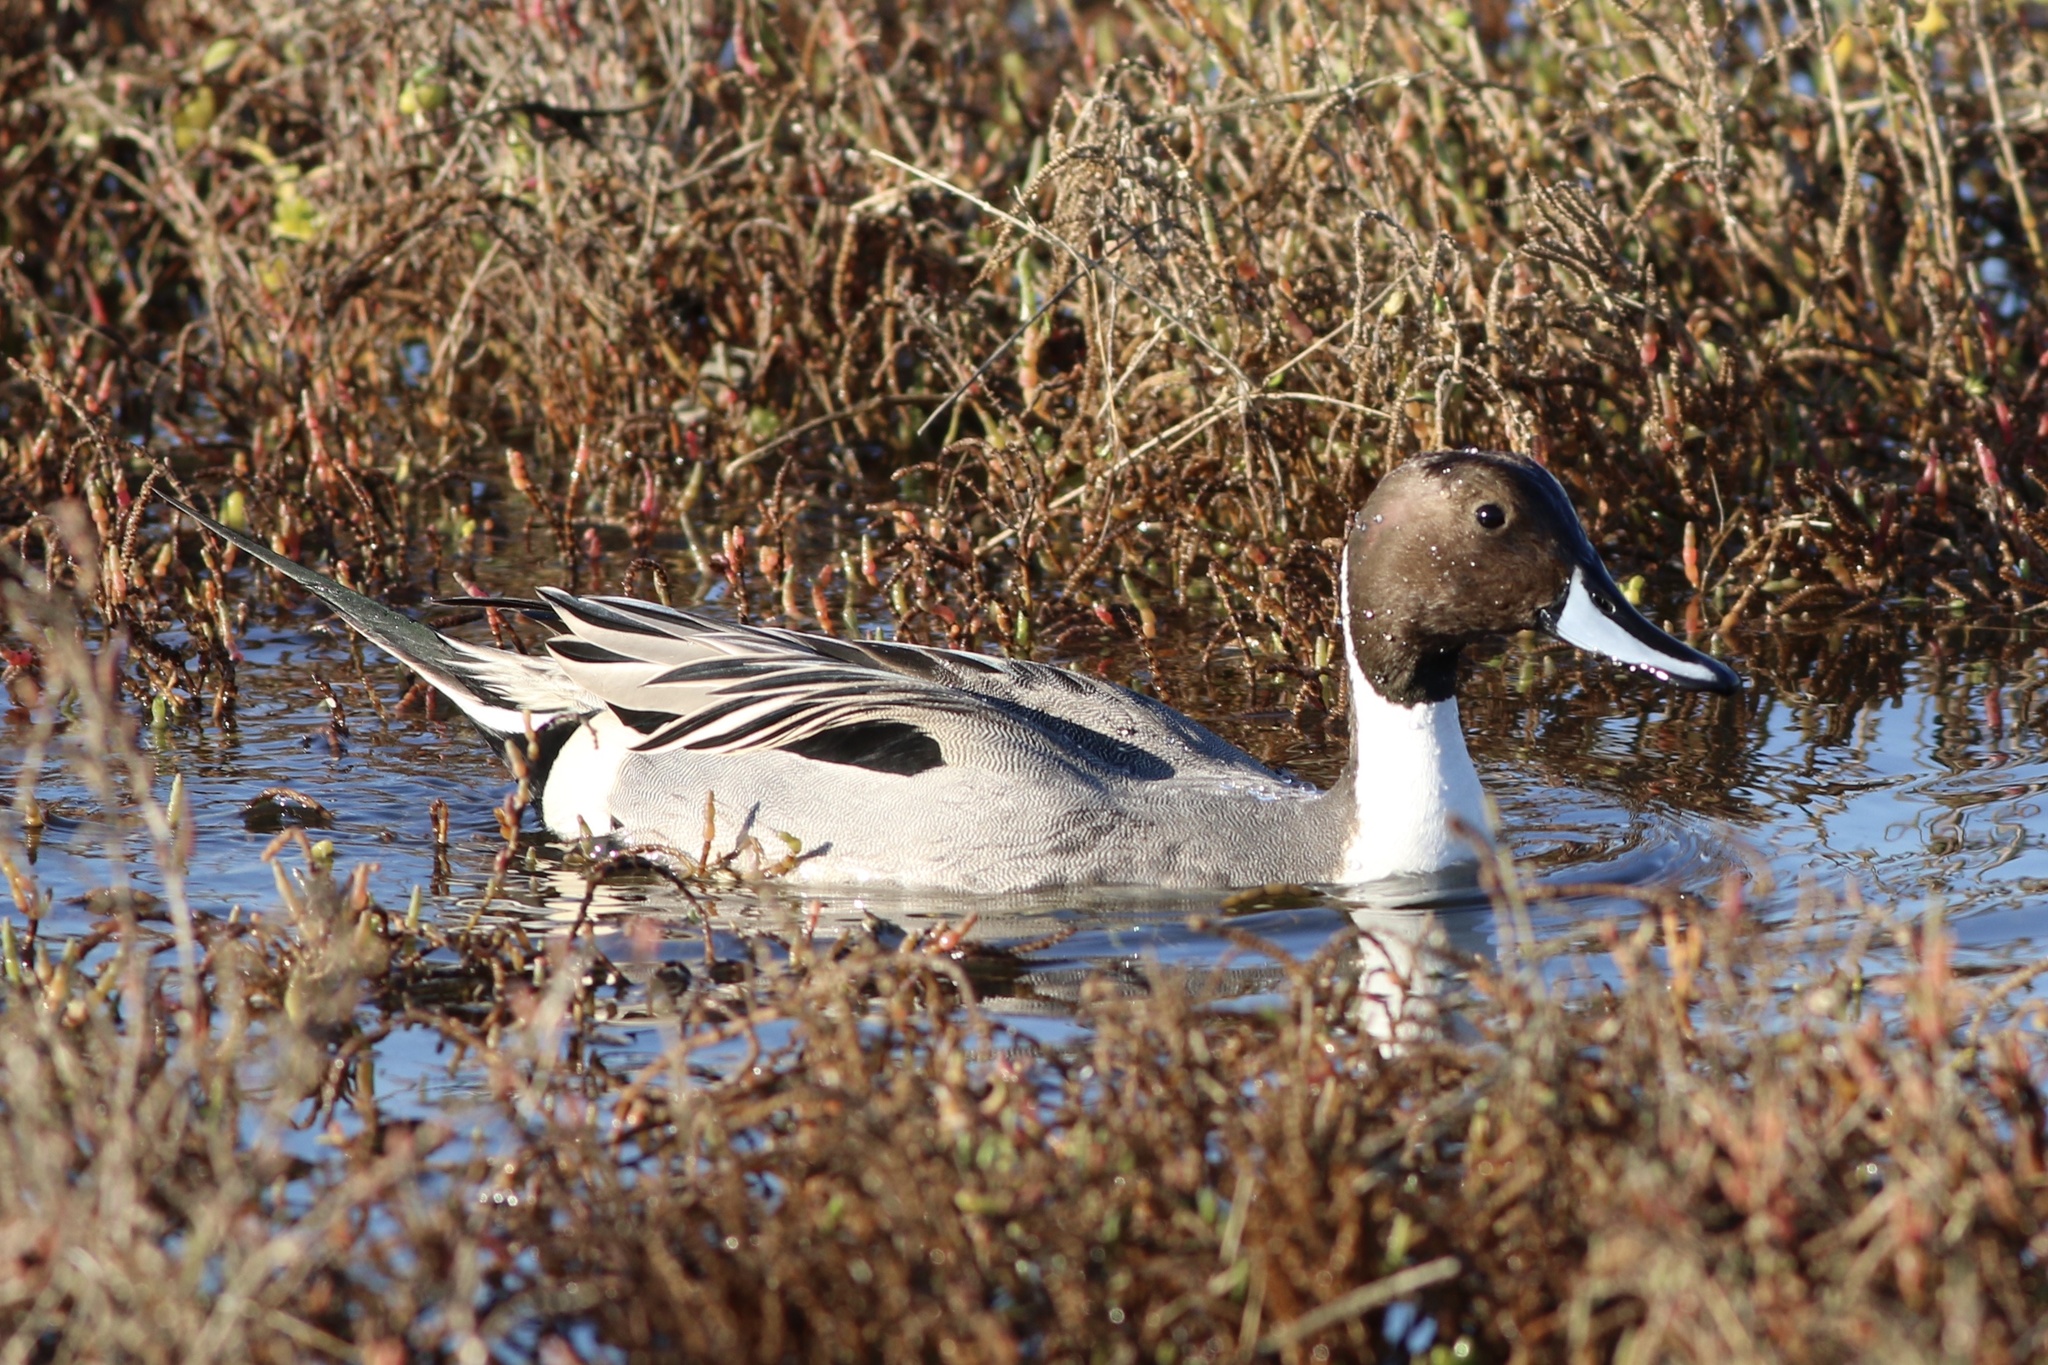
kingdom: Animalia
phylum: Chordata
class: Aves
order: Anseriformes
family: Anatidae
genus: Anas
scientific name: Anas acuta
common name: Northern pintail
